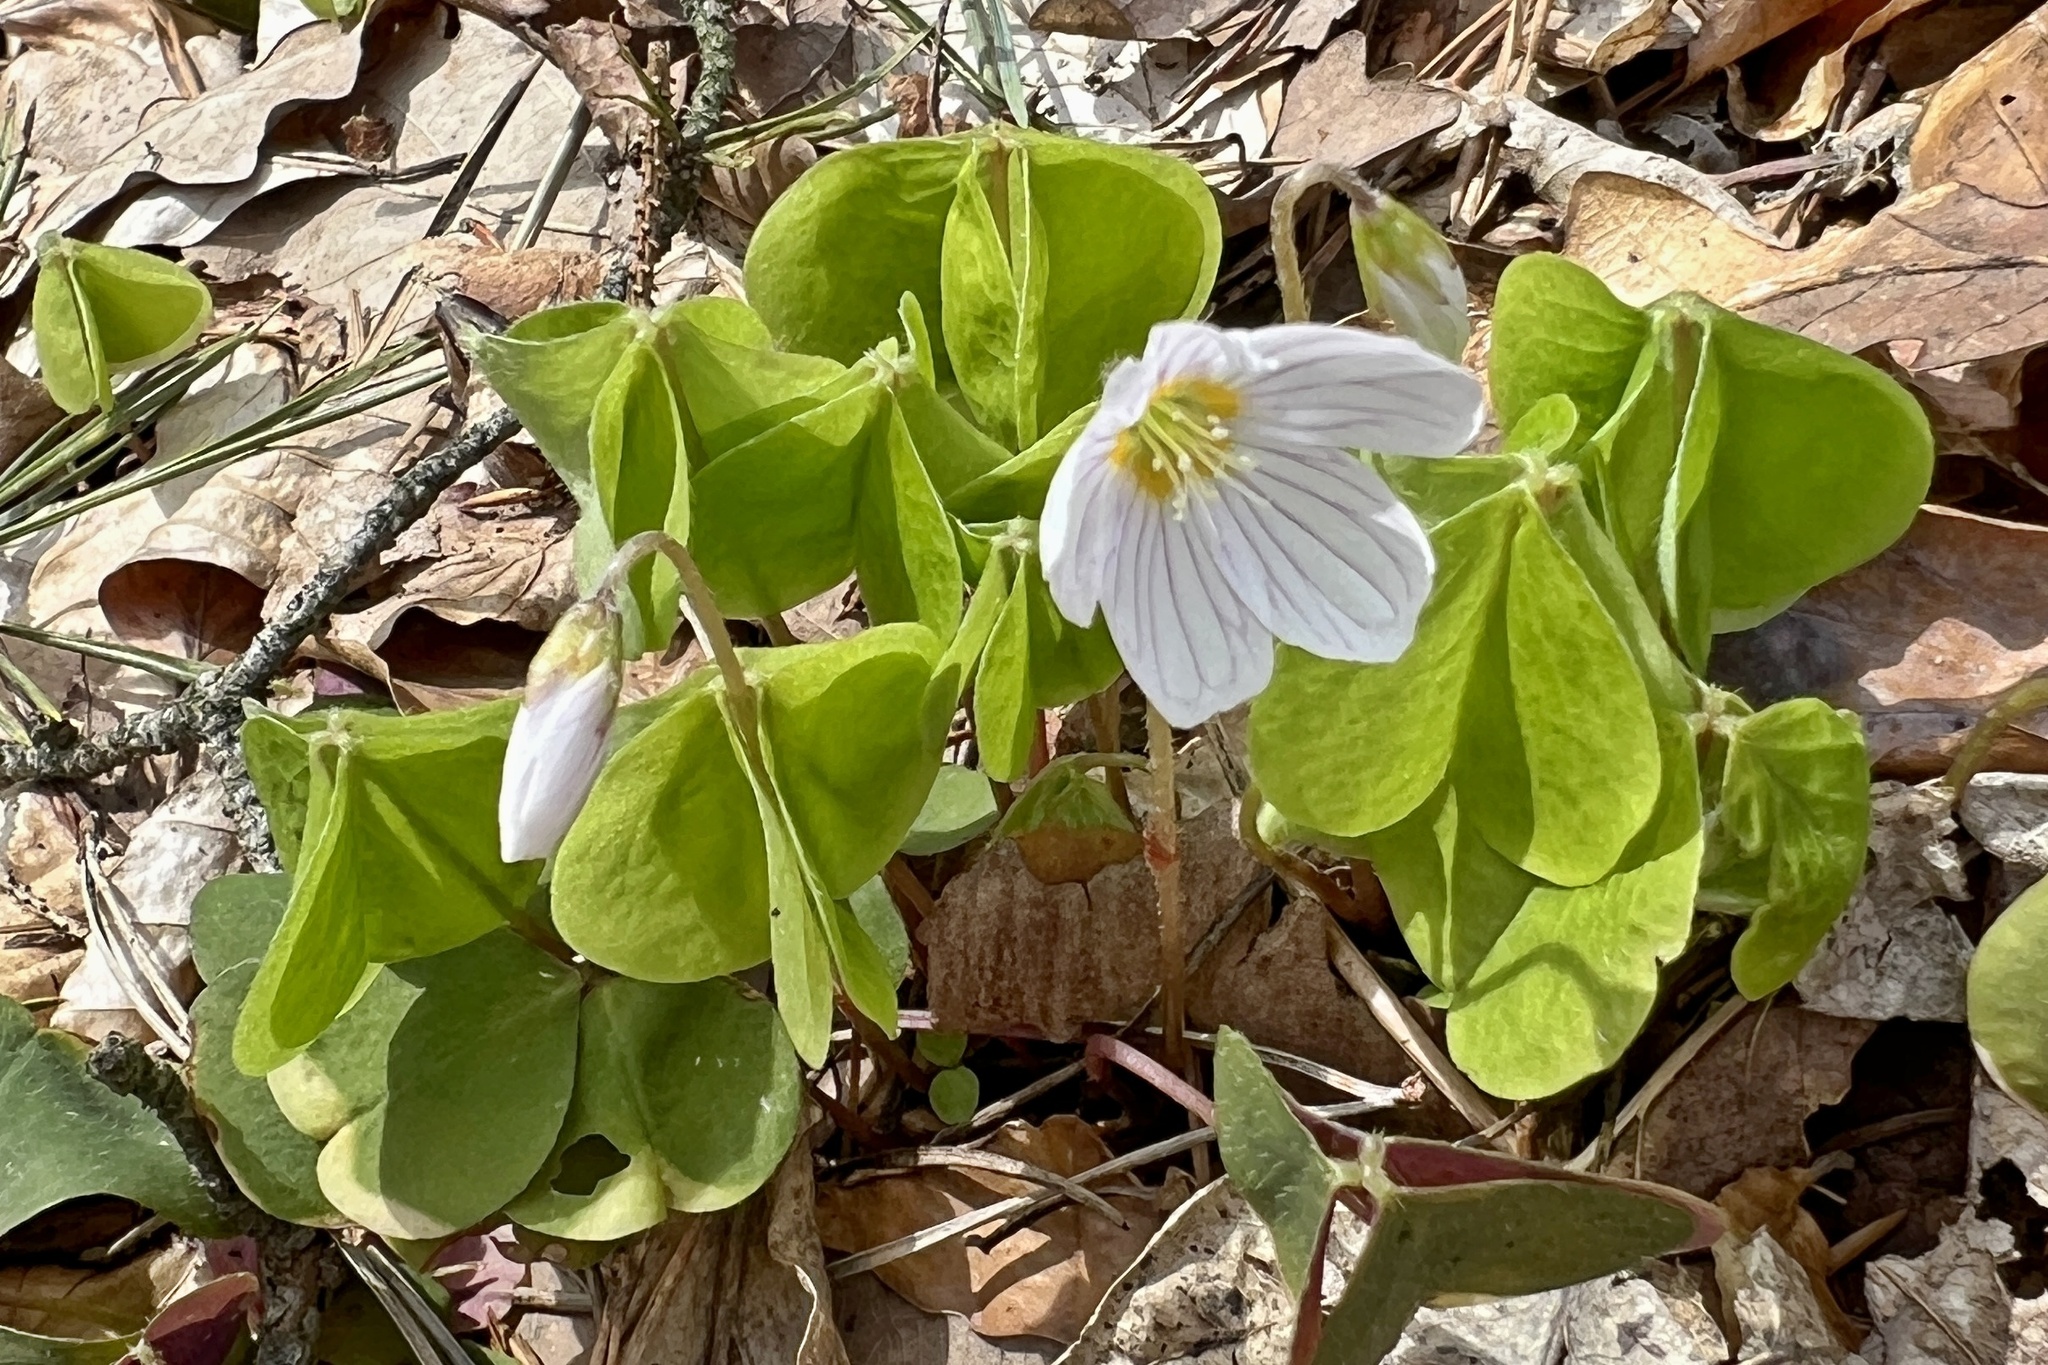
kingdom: Plantae
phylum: Tracheophyta
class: Magnoliopsida
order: Oxalidales
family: Oxalidaceae
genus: Oxalis
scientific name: Oxalis acetosella
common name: Wood-sorrel
